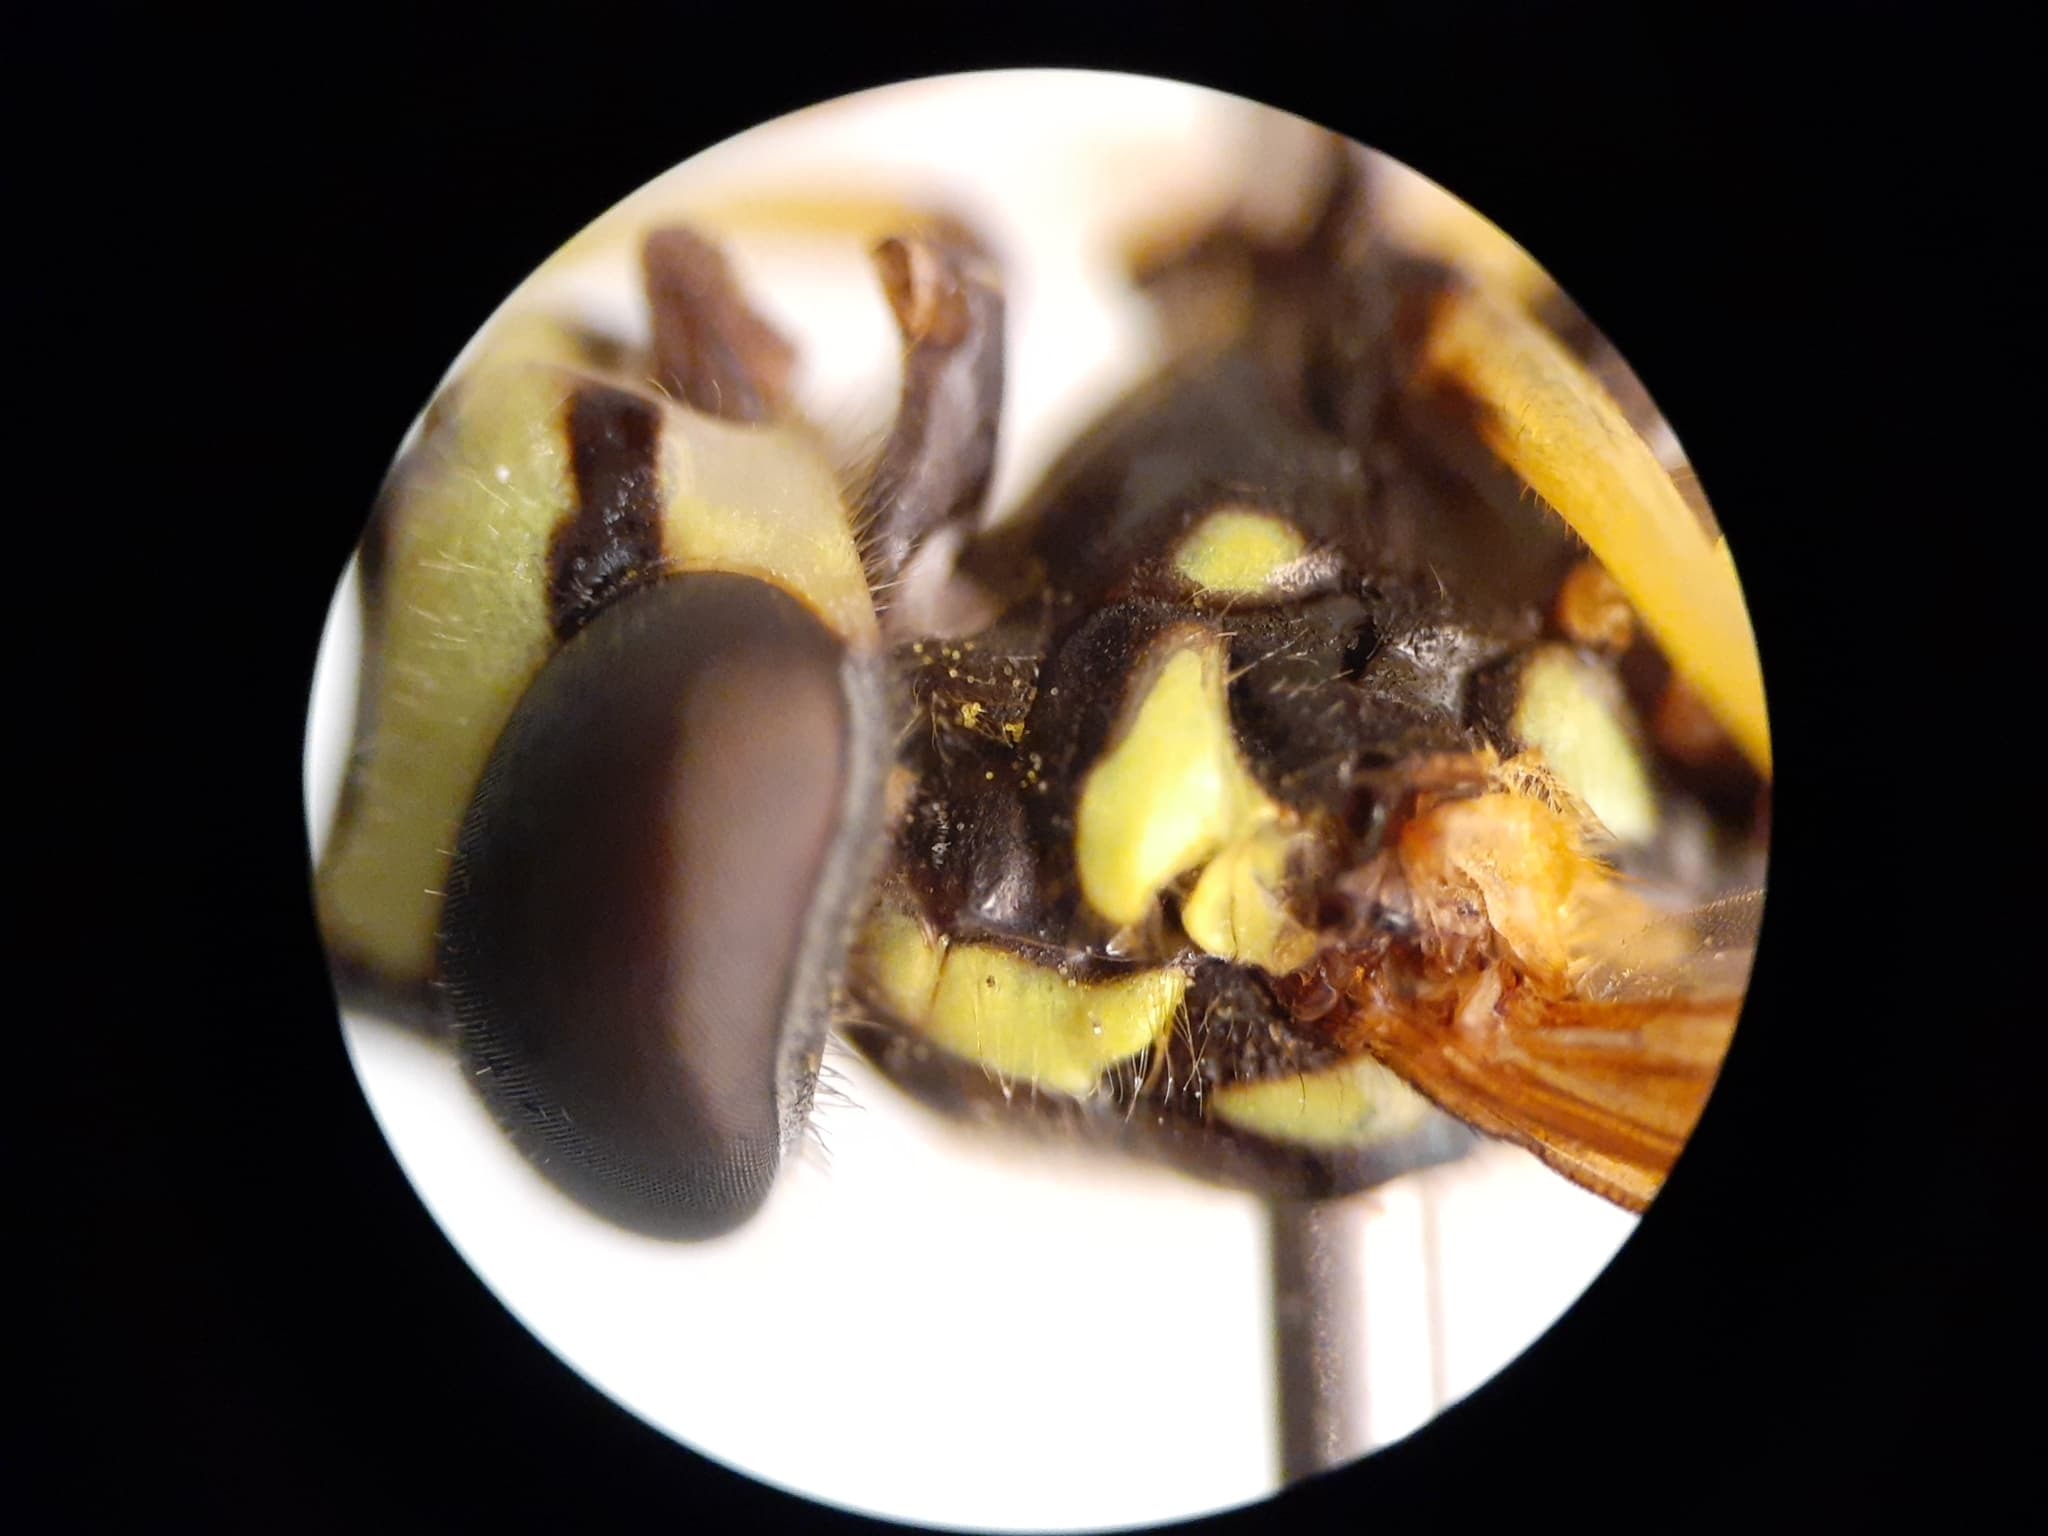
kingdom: Animalia
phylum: Arthropoda
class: Insecta
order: Diptera
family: Syrphidae
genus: Chrysotoxum
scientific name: Chrysotoxum flavifrons
